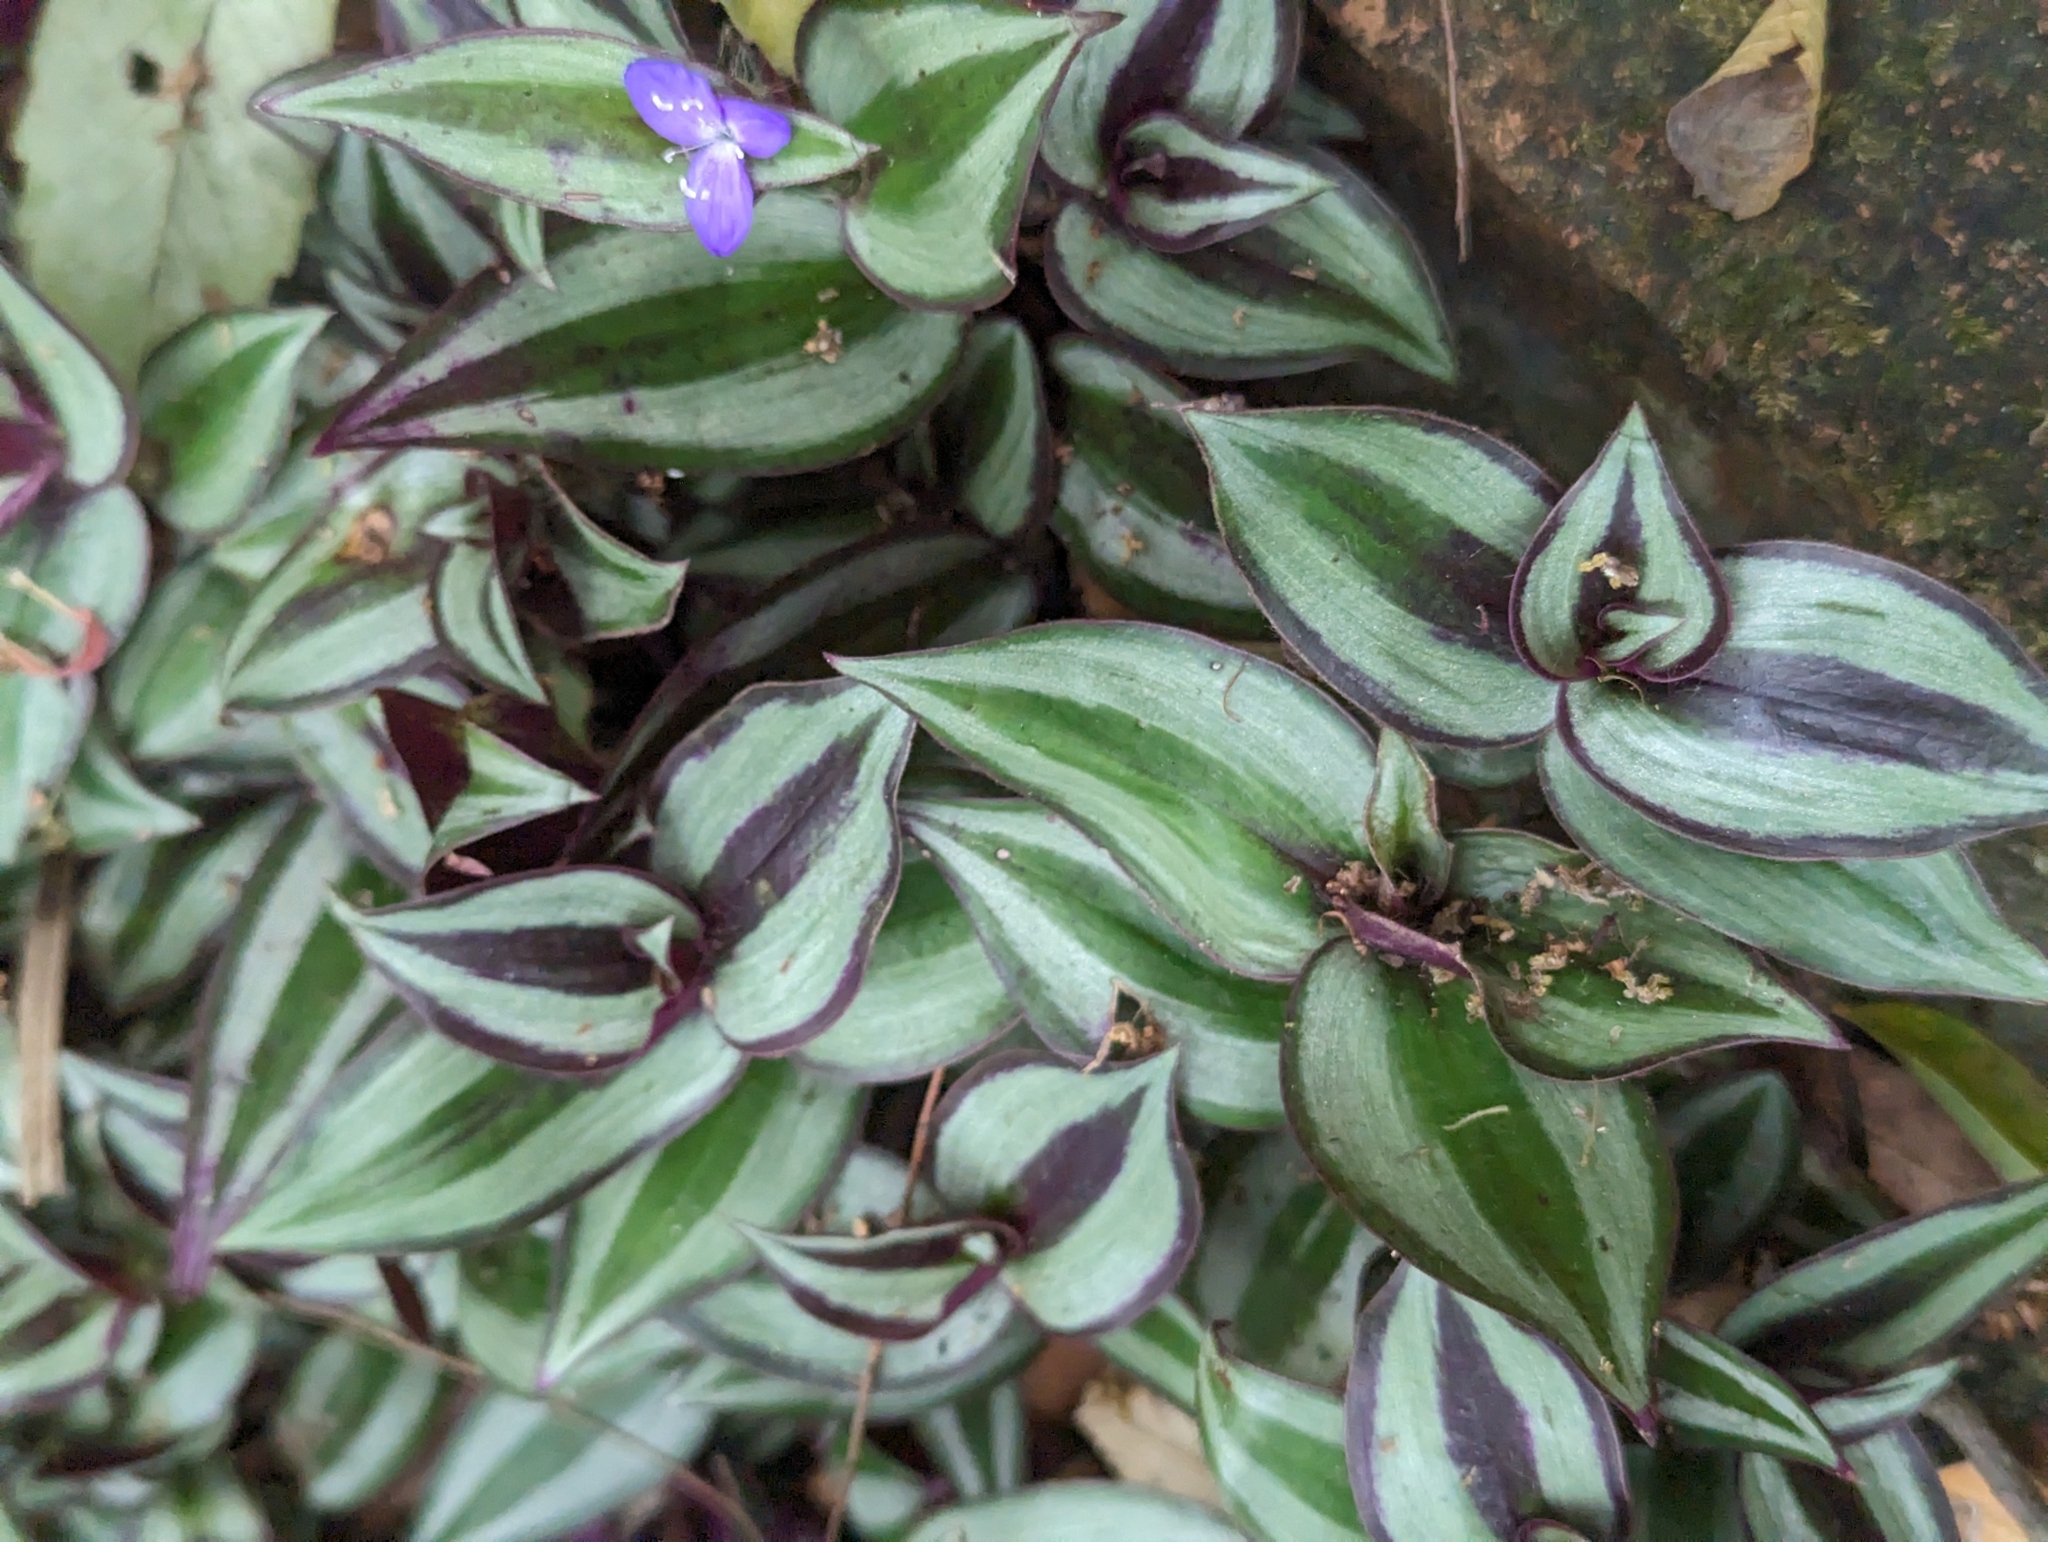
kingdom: Plantae
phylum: Tracheophyta
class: Liliopsida
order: Commelinales
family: Commelinaceae
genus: Tradescantia
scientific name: Tradescantia zebrina
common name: Inchplant
